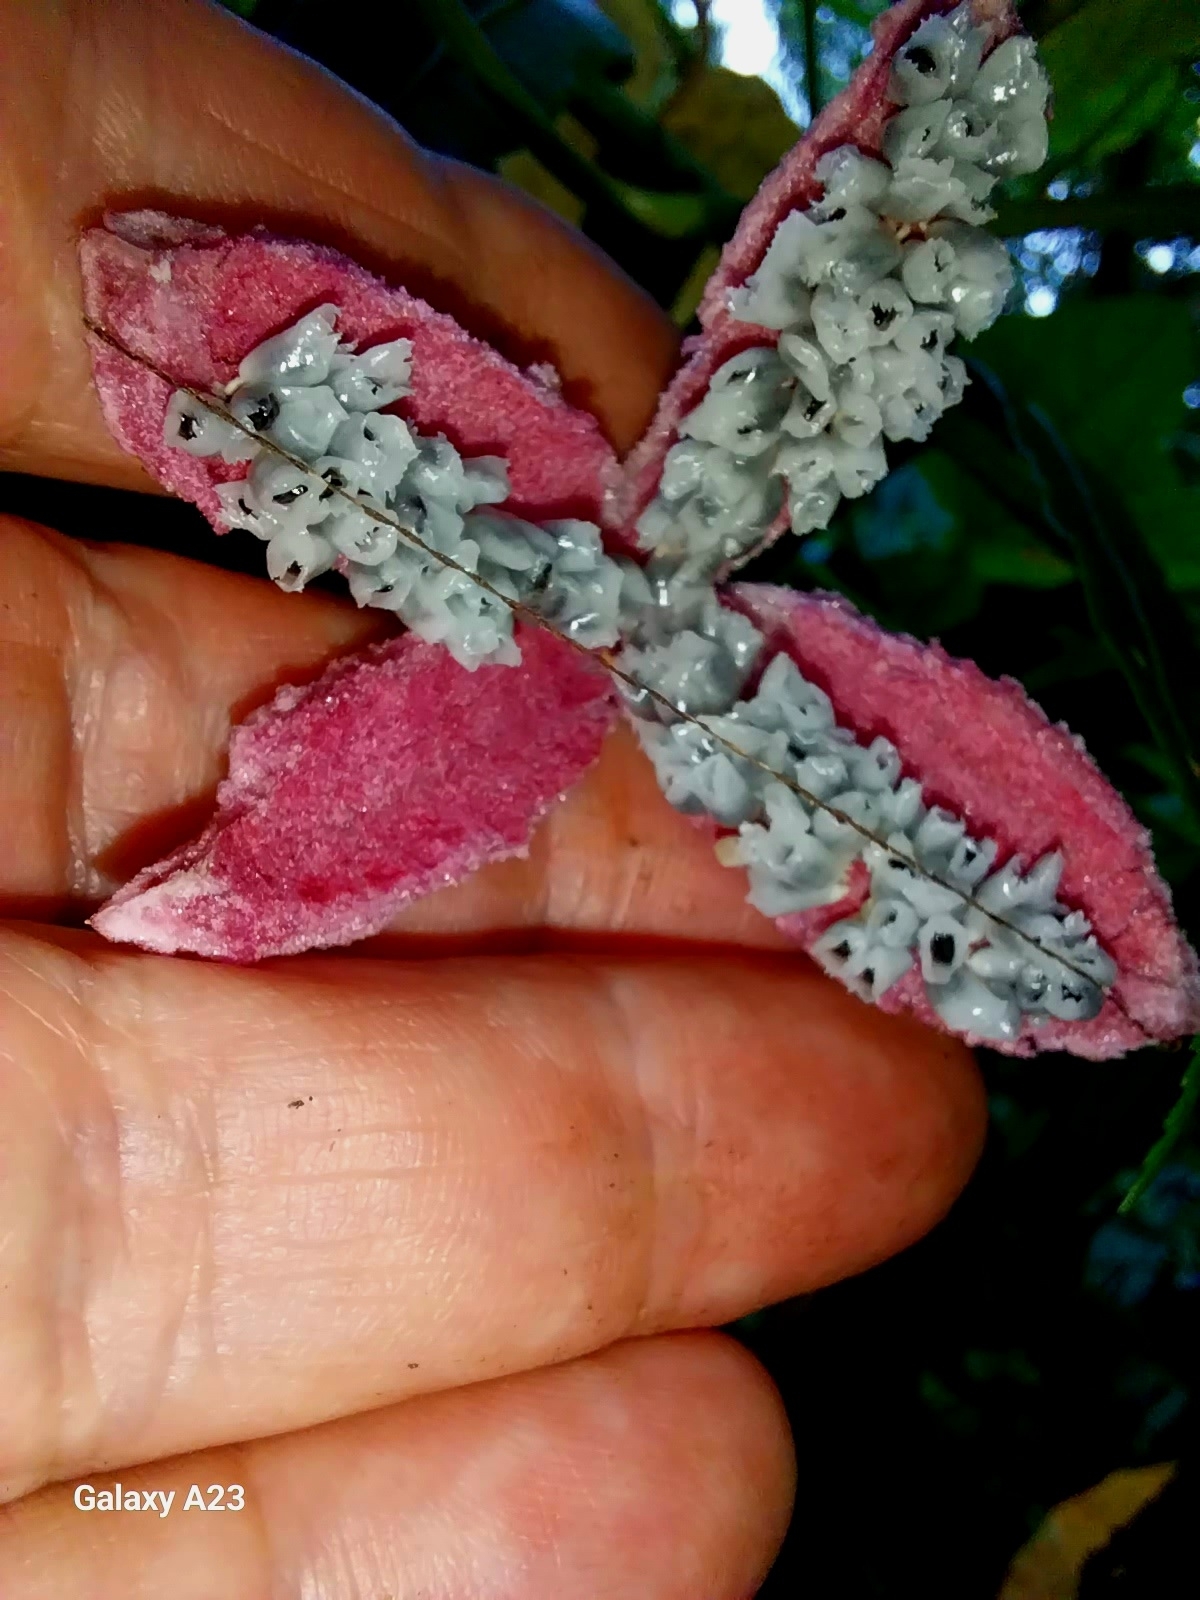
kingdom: Plantae
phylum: Tracheophyta
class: Magnoliopsida
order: Malpighiales
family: Passifloraceae
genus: Passiflora
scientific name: Passiflora rubra
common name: Snakeberry vine
